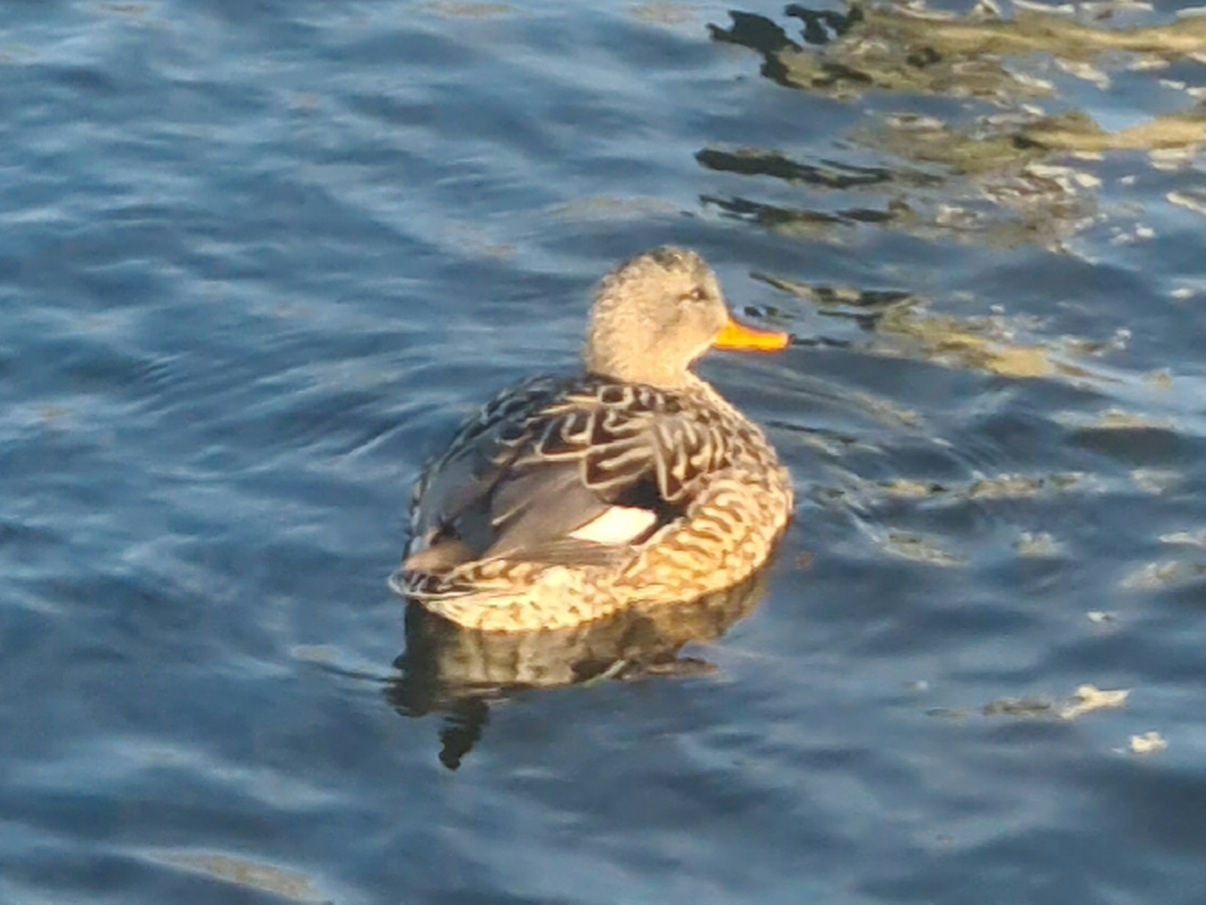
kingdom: Animalia
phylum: Chordata
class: Aves
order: Anseriformes
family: Anatidae
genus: Mareca
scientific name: Mareca strepera
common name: Gadwall
